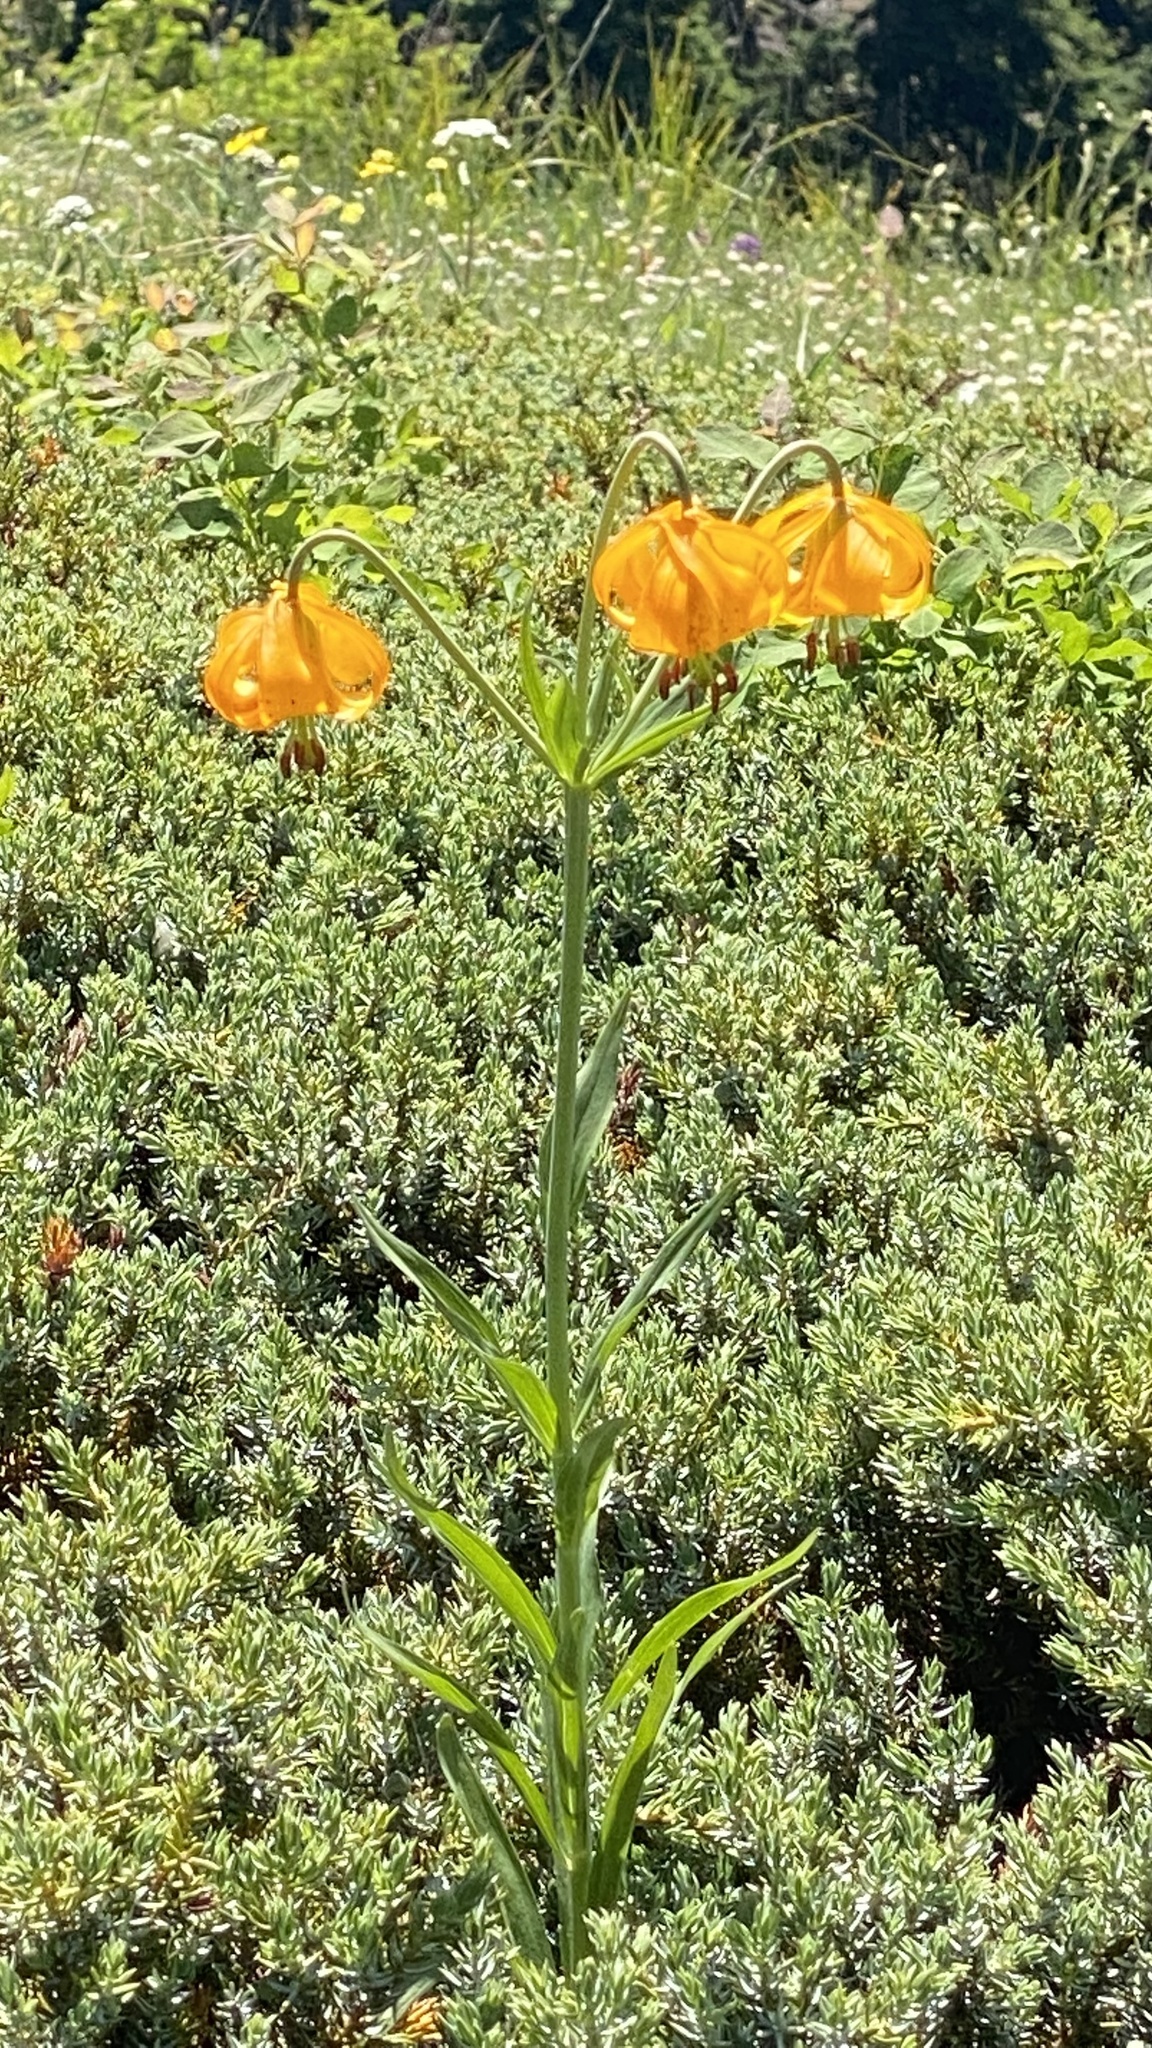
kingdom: Plantae
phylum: Tracheophyta
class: Liliopsida
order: Liliales
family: Liliaceae
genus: Lilium
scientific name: Lilium columbianum
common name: Columbia lily
